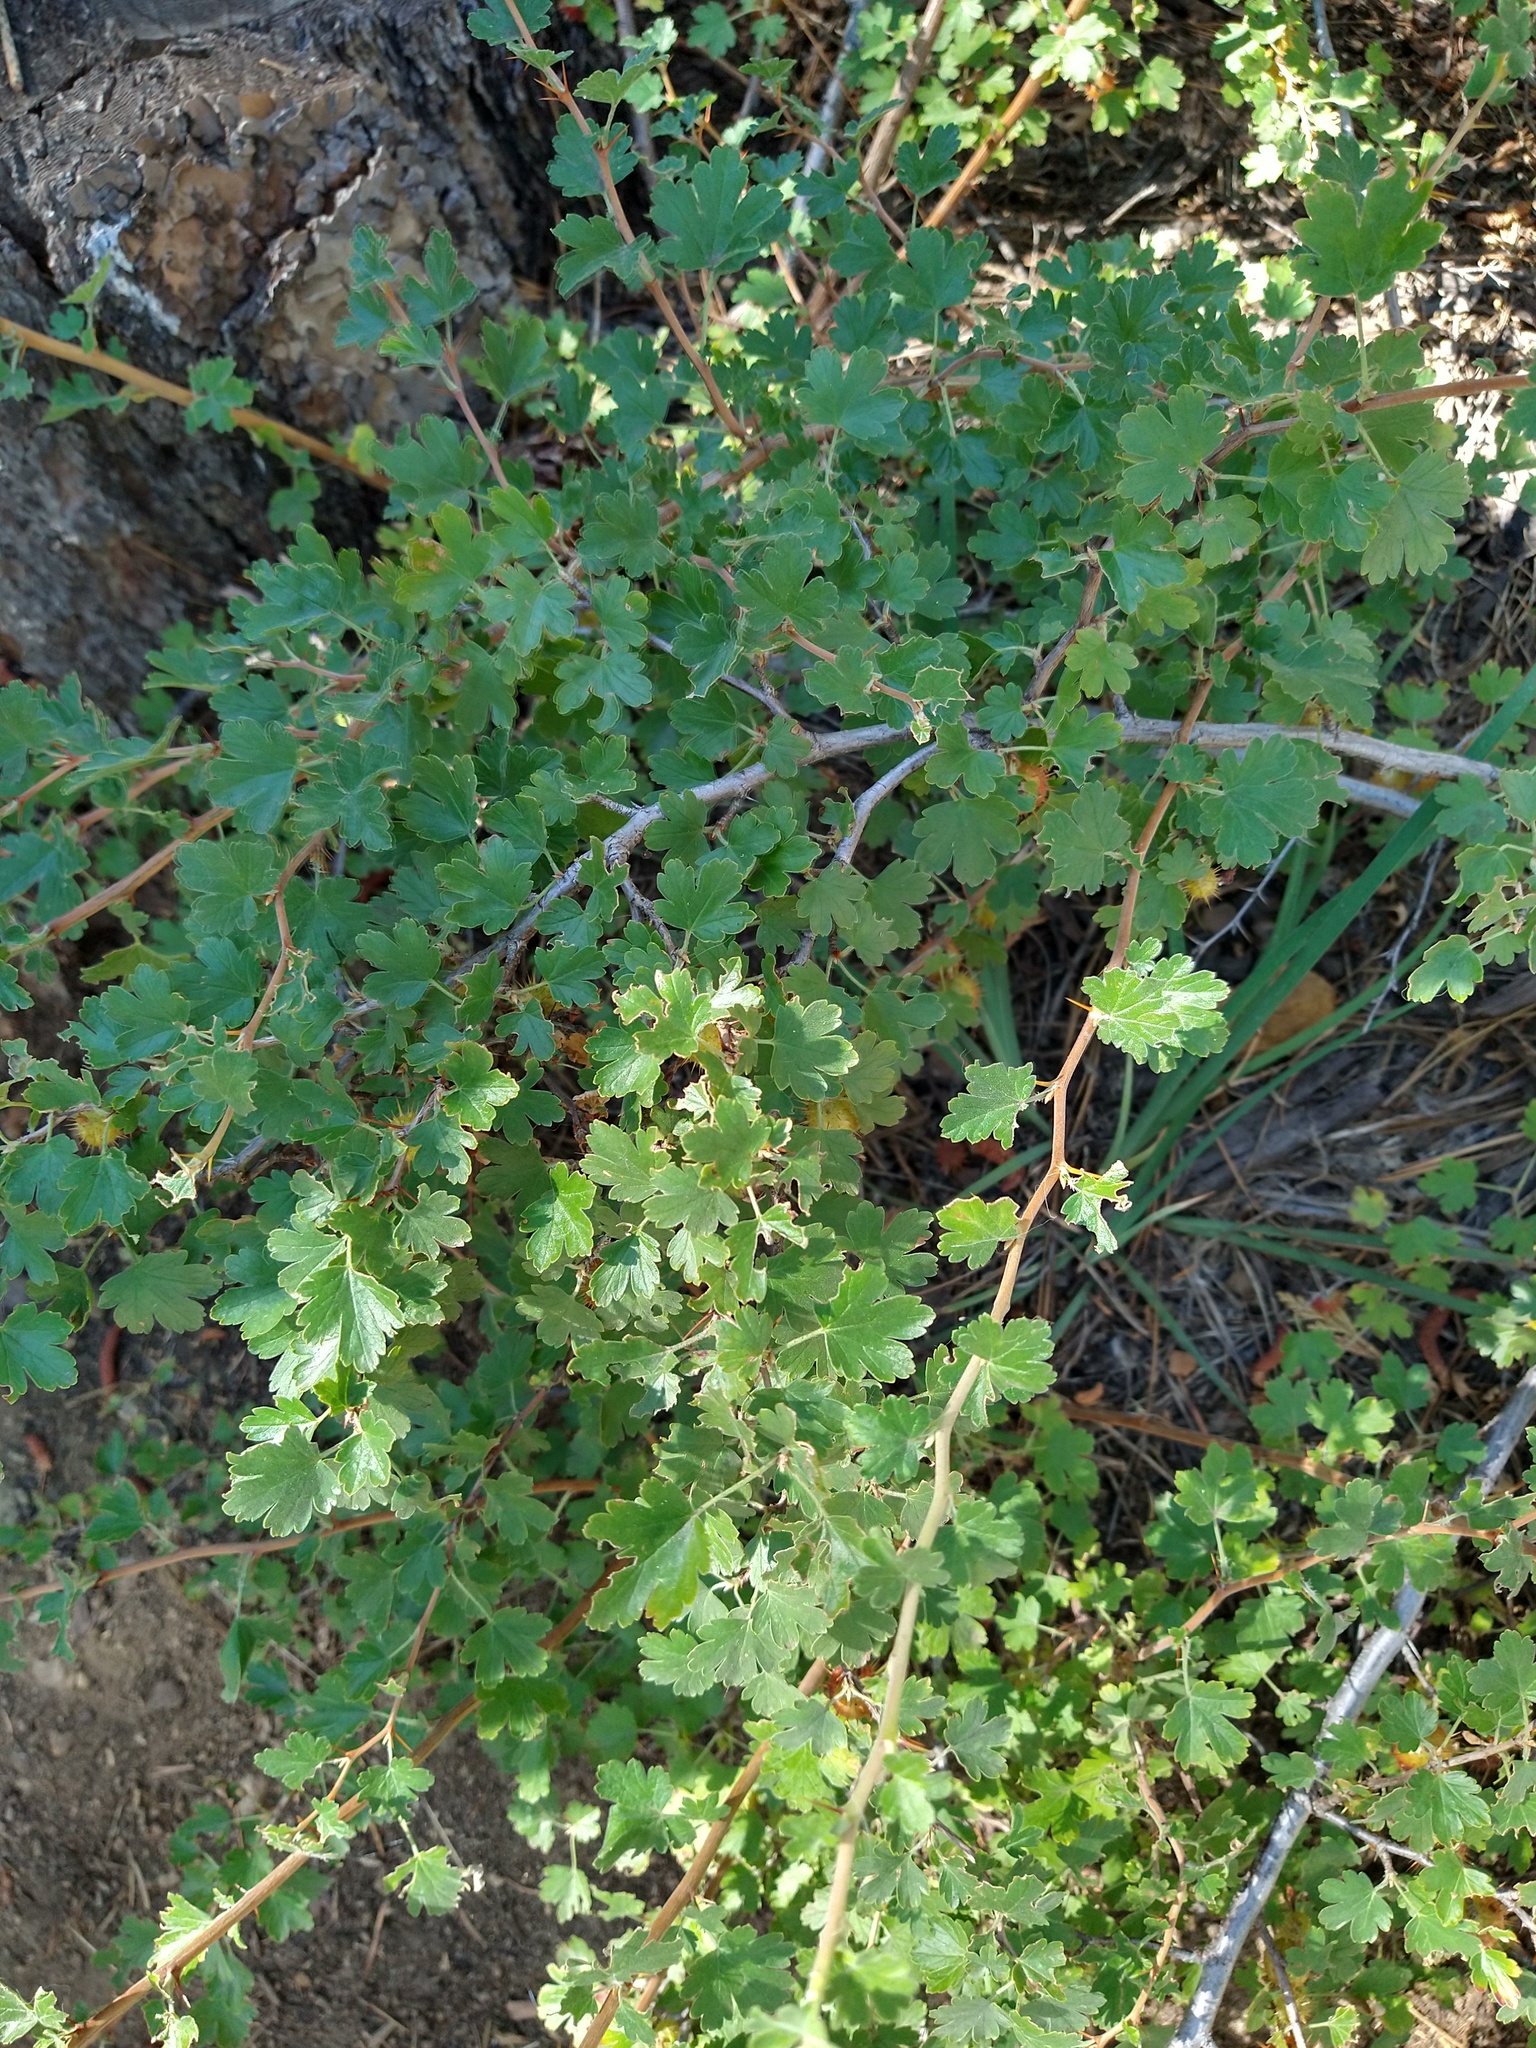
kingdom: Plantae
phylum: Tracheophyta
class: Magnoliopsida
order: Saxifragales
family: Grossulariaceae
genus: Ribes
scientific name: Ribes roezlii
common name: Sierra gooseberry
